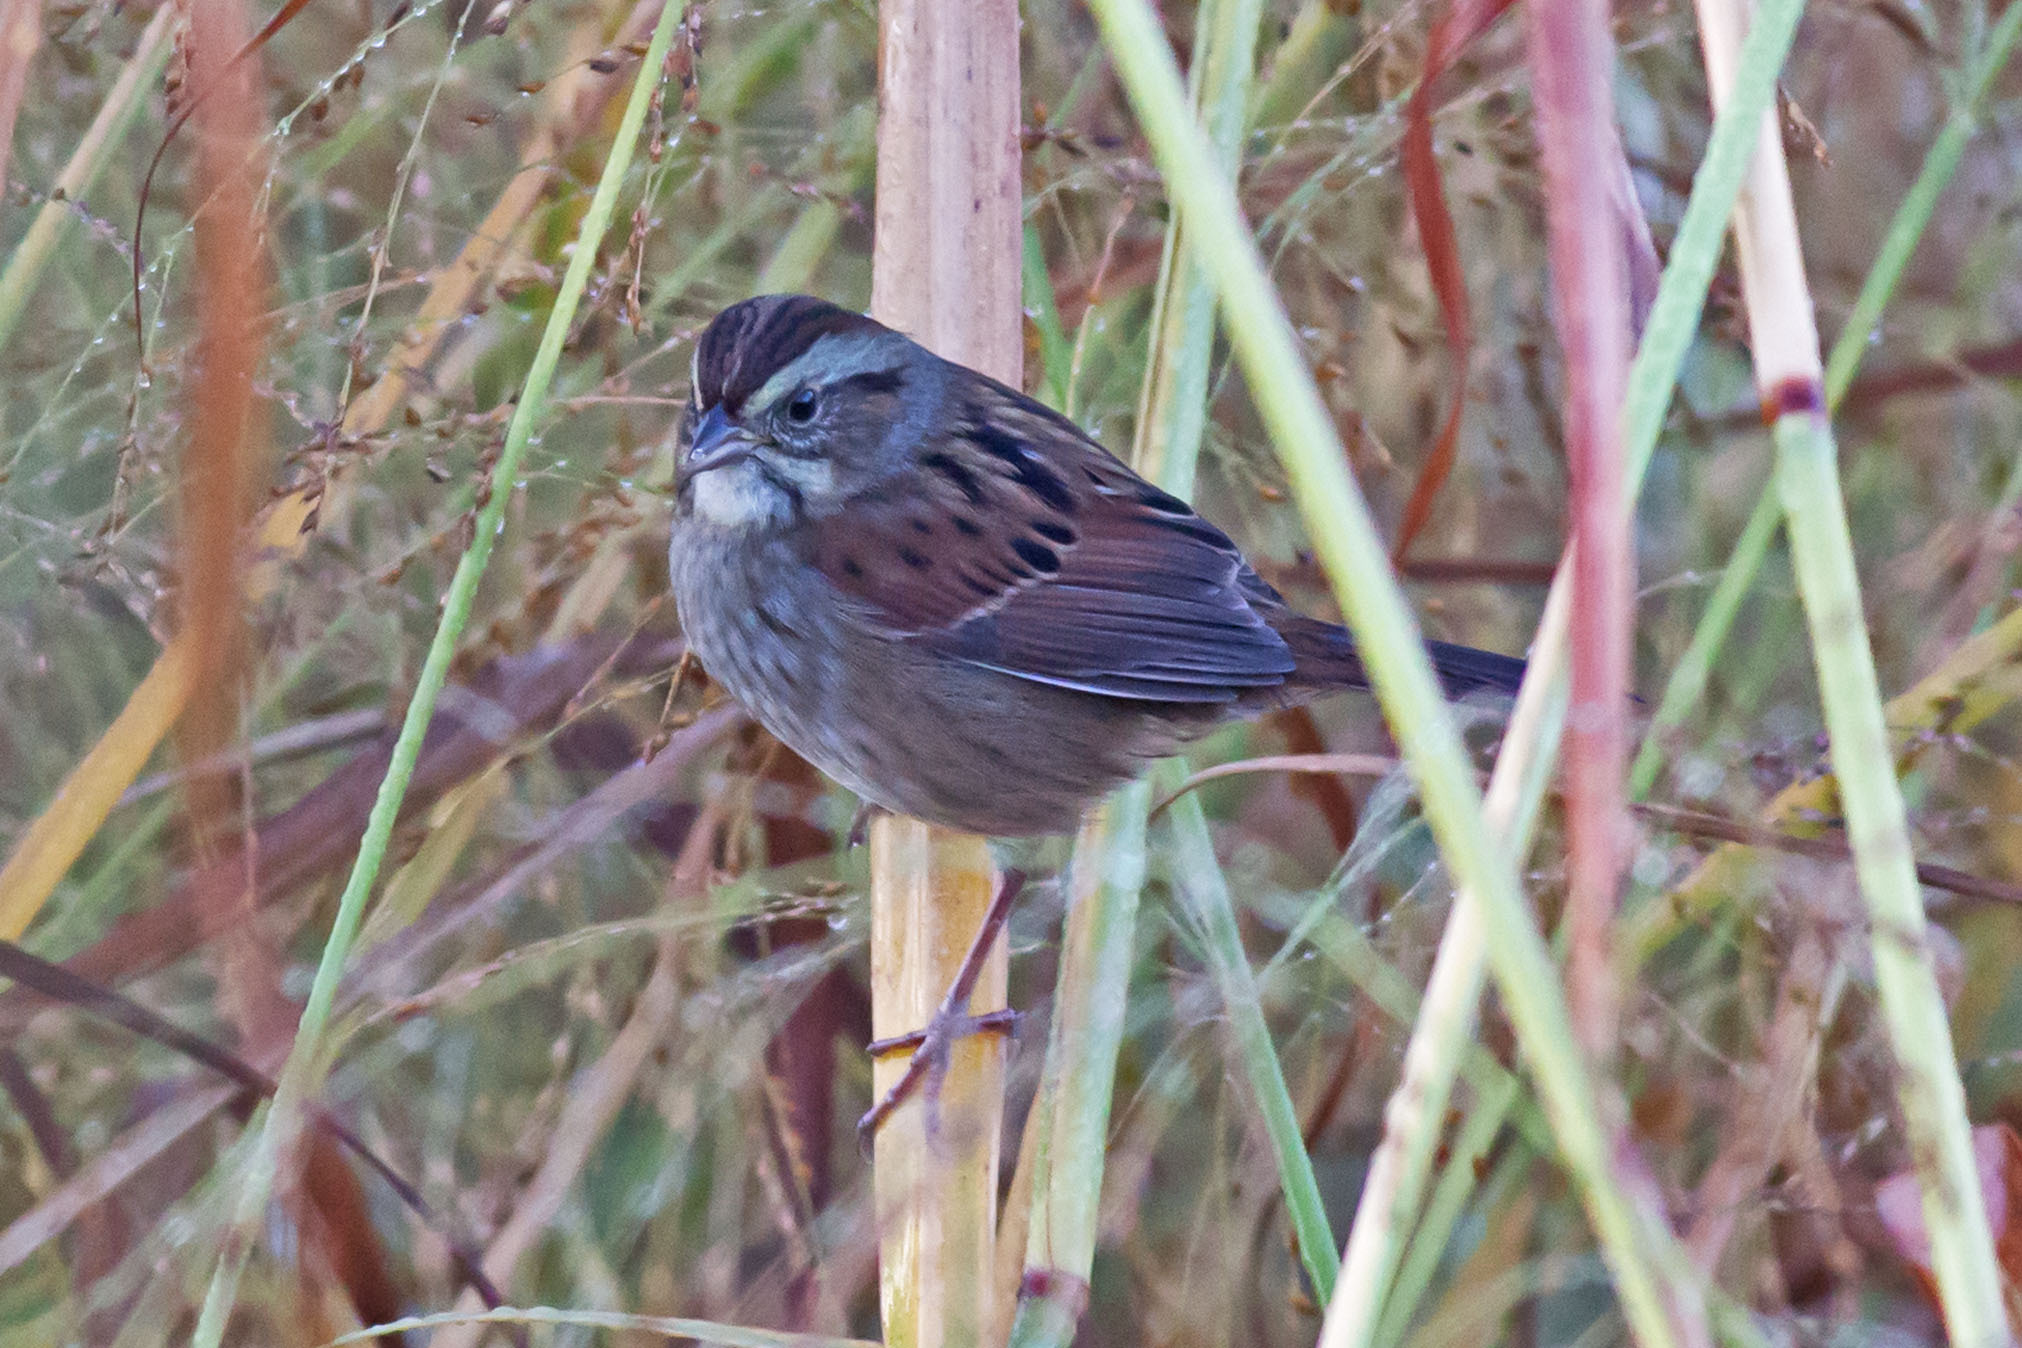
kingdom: Animalia
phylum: Chordata
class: Aves
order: Passeriformes
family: Passerellidae
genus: Melospiza
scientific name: Melospiza georgiana
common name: Swamp sparrow
